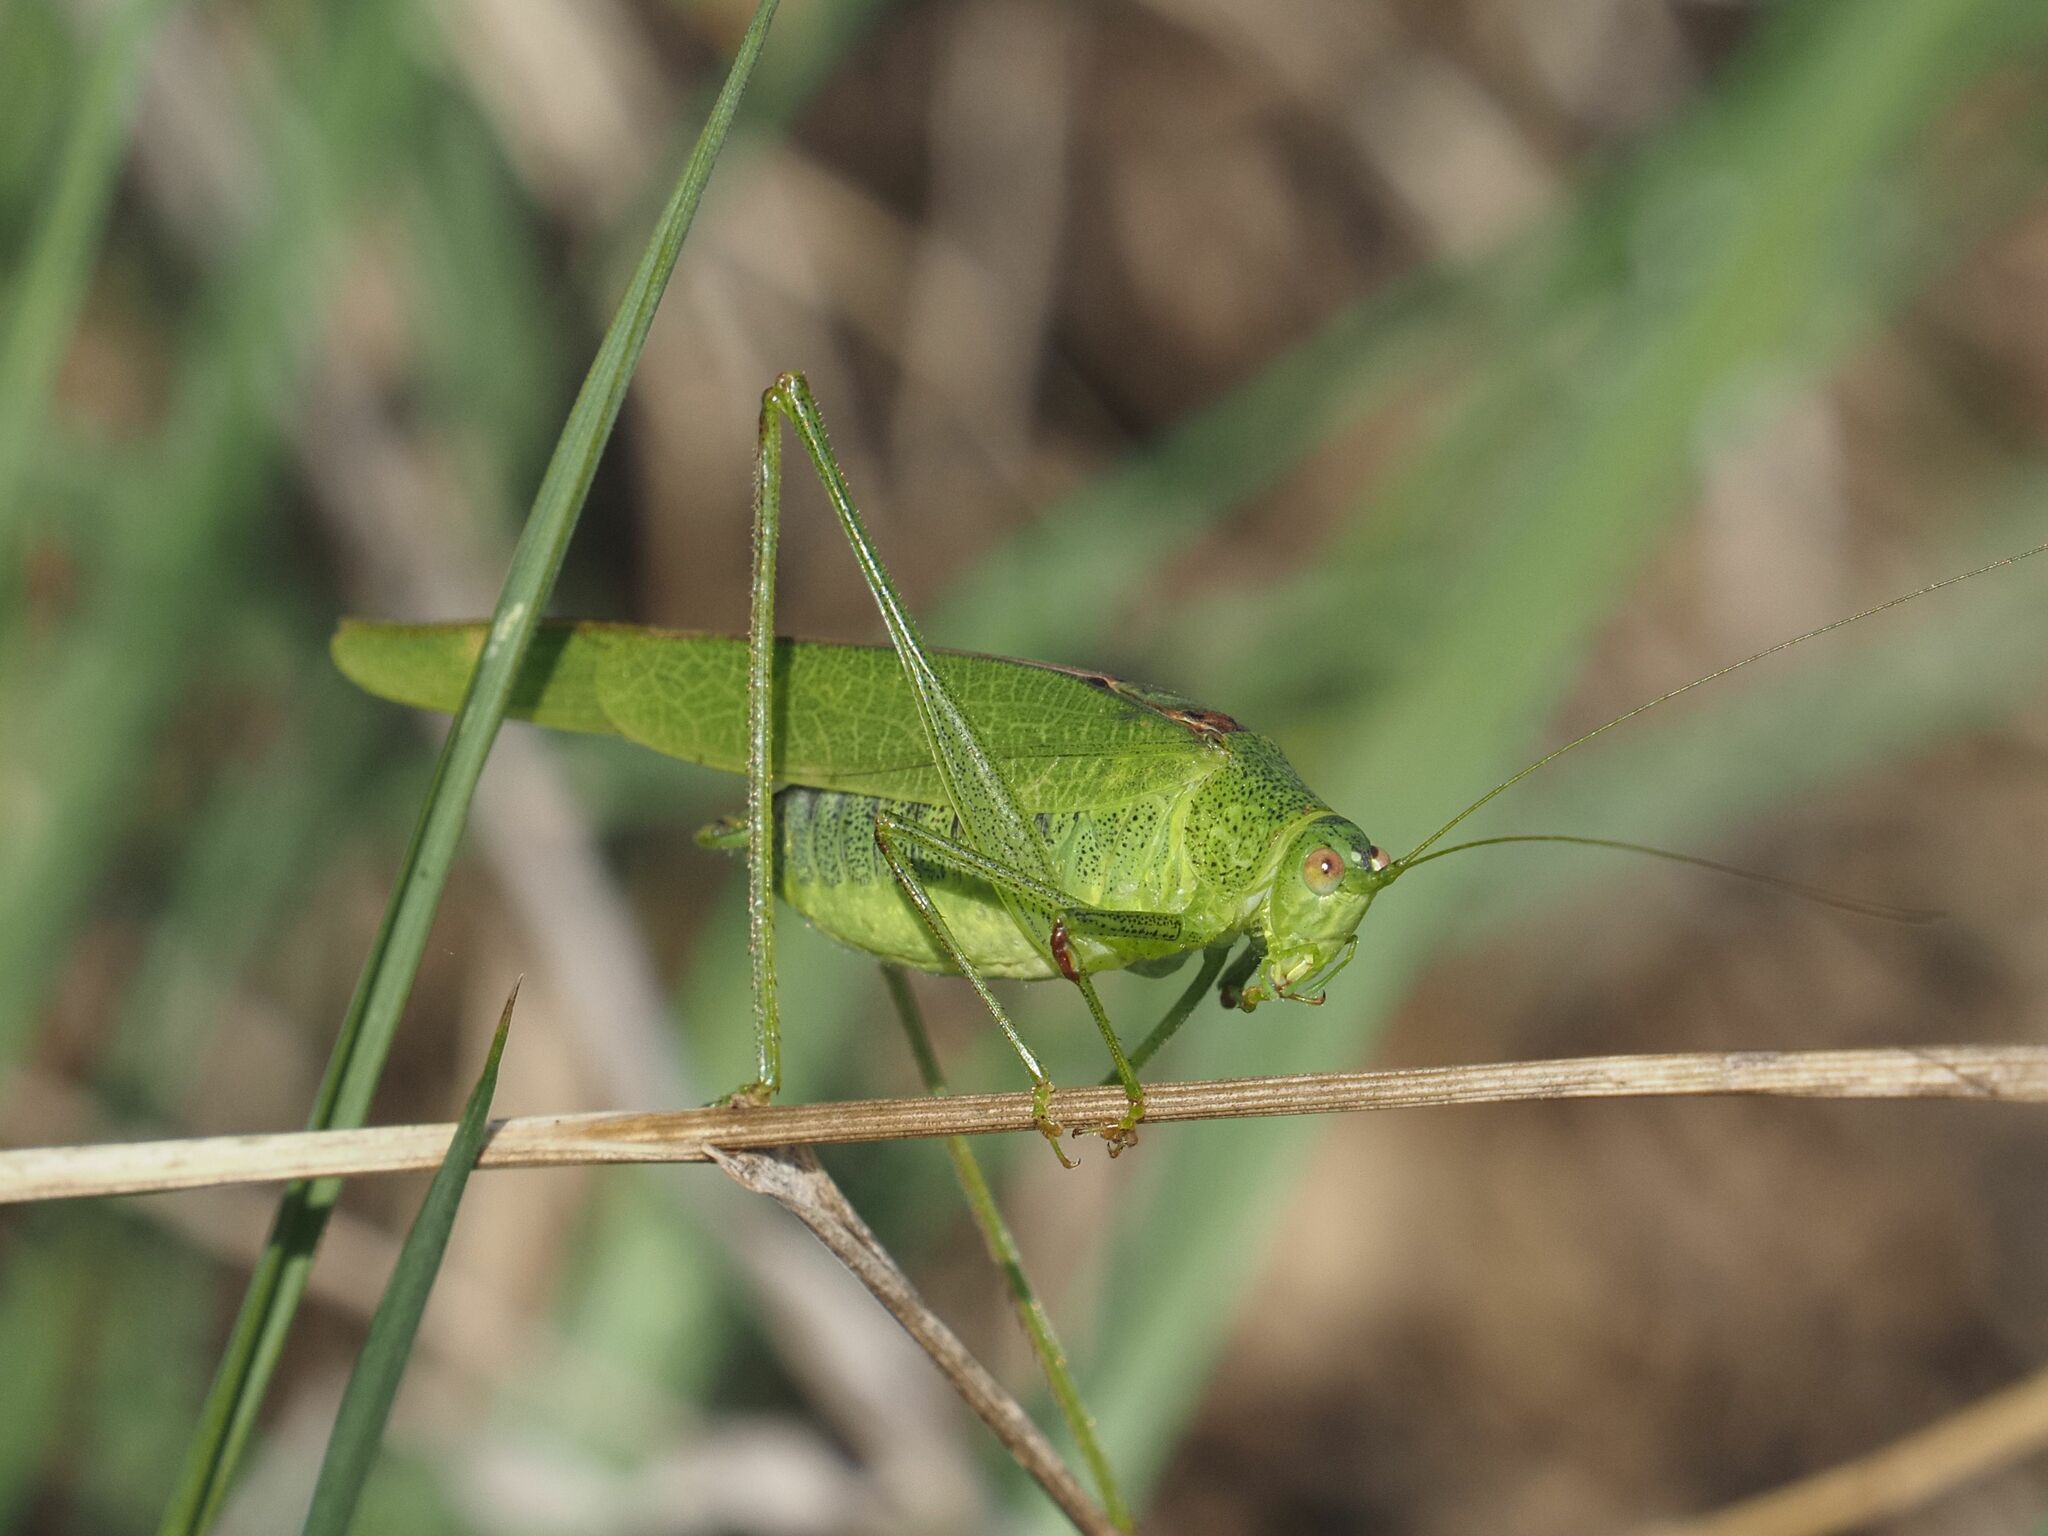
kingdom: Animalia
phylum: Arthropoda
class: Insecta
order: Orthoptera
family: Tettigoniidae
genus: Phaneroptera
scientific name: Phaneroptera nana
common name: Southern sickle bush-cricket
